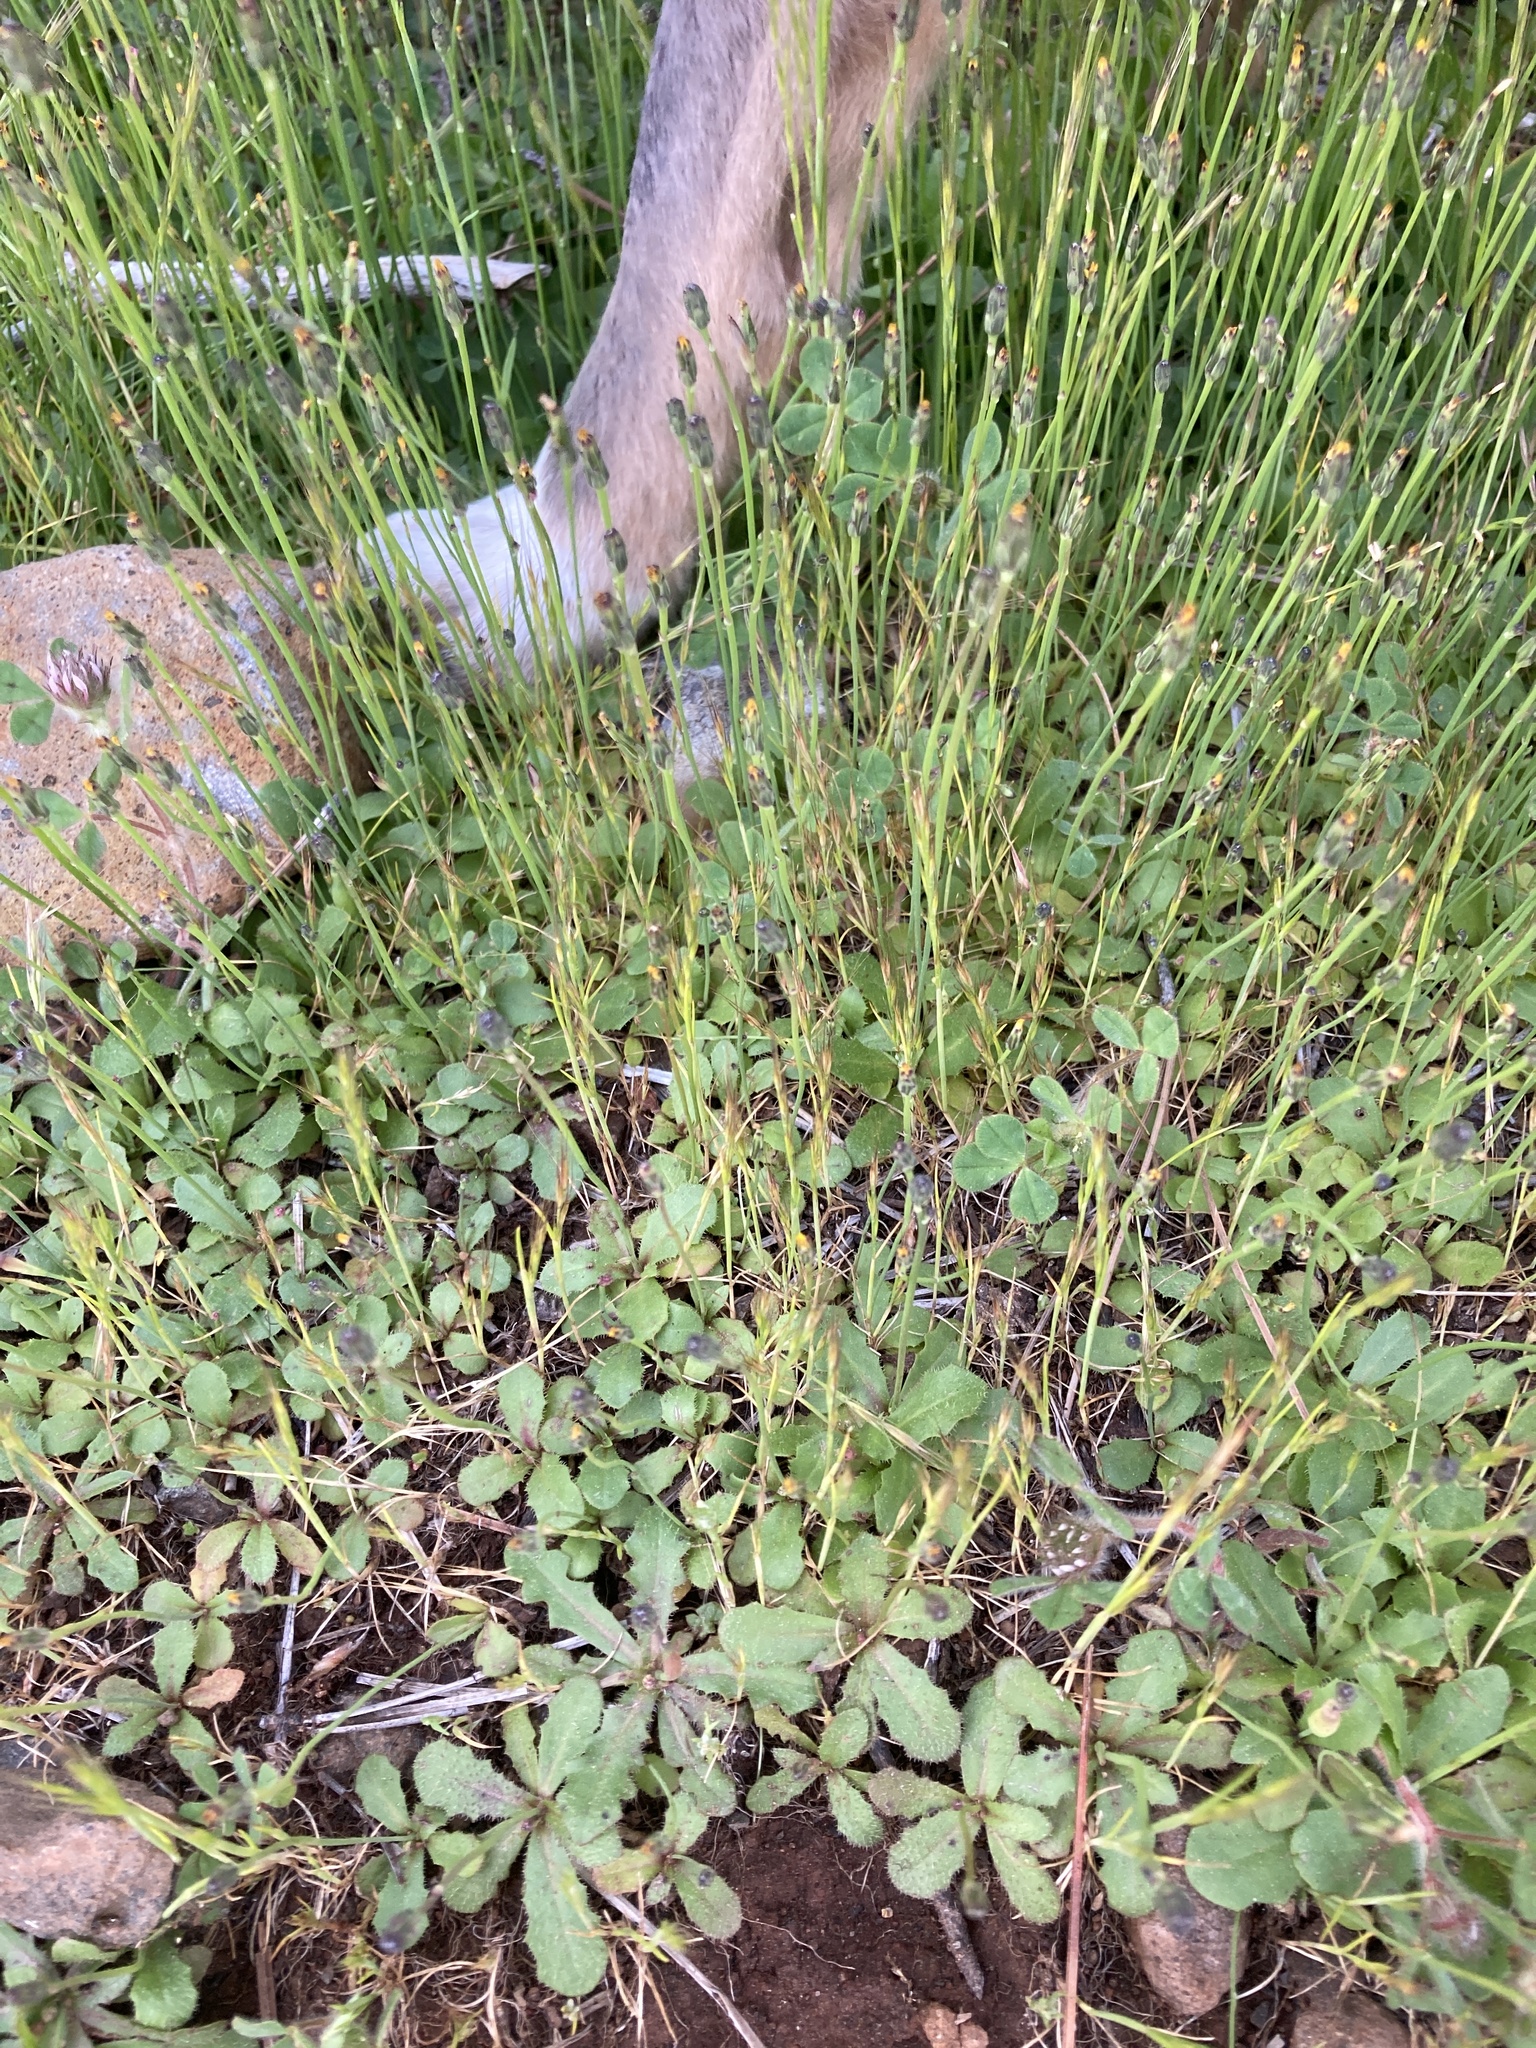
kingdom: Plantae
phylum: Tracheophyta
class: Magnoliopsida
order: Asterales
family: Asteraceae
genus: Hypochaeris
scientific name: Hypochaeris glabra
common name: Smooth catsear
